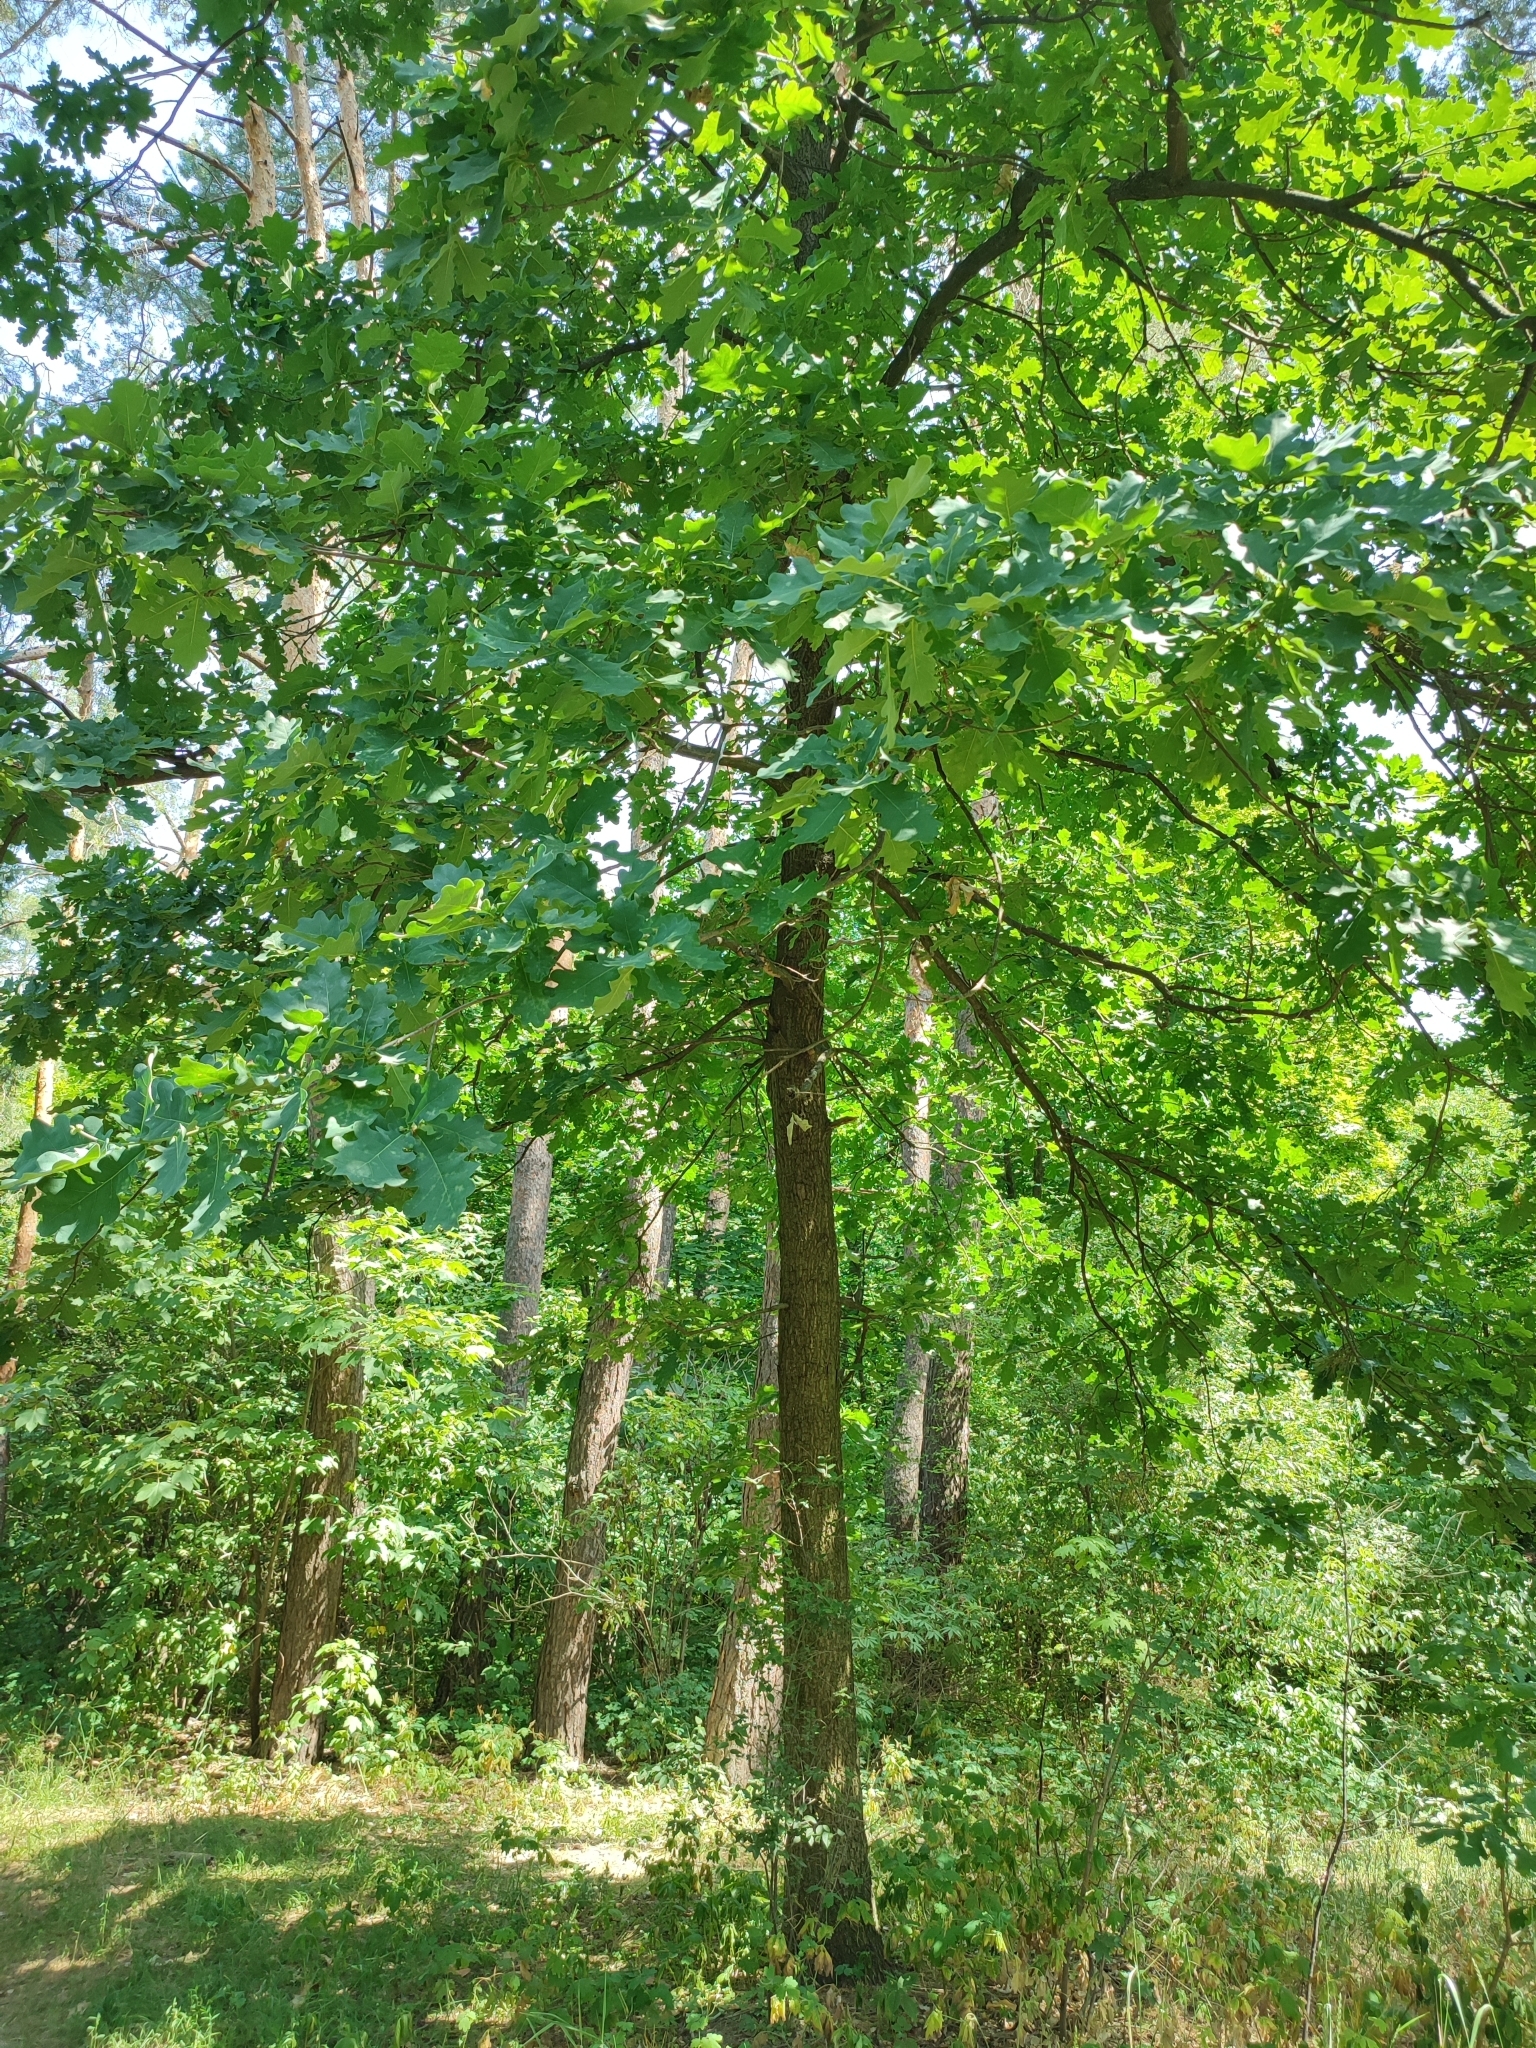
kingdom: Plantae
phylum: Tracheophyta
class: Magnoliopsida
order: Fagales
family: Fagaceae
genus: Quercus
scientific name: Quercus robur
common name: Pedunculate oak
